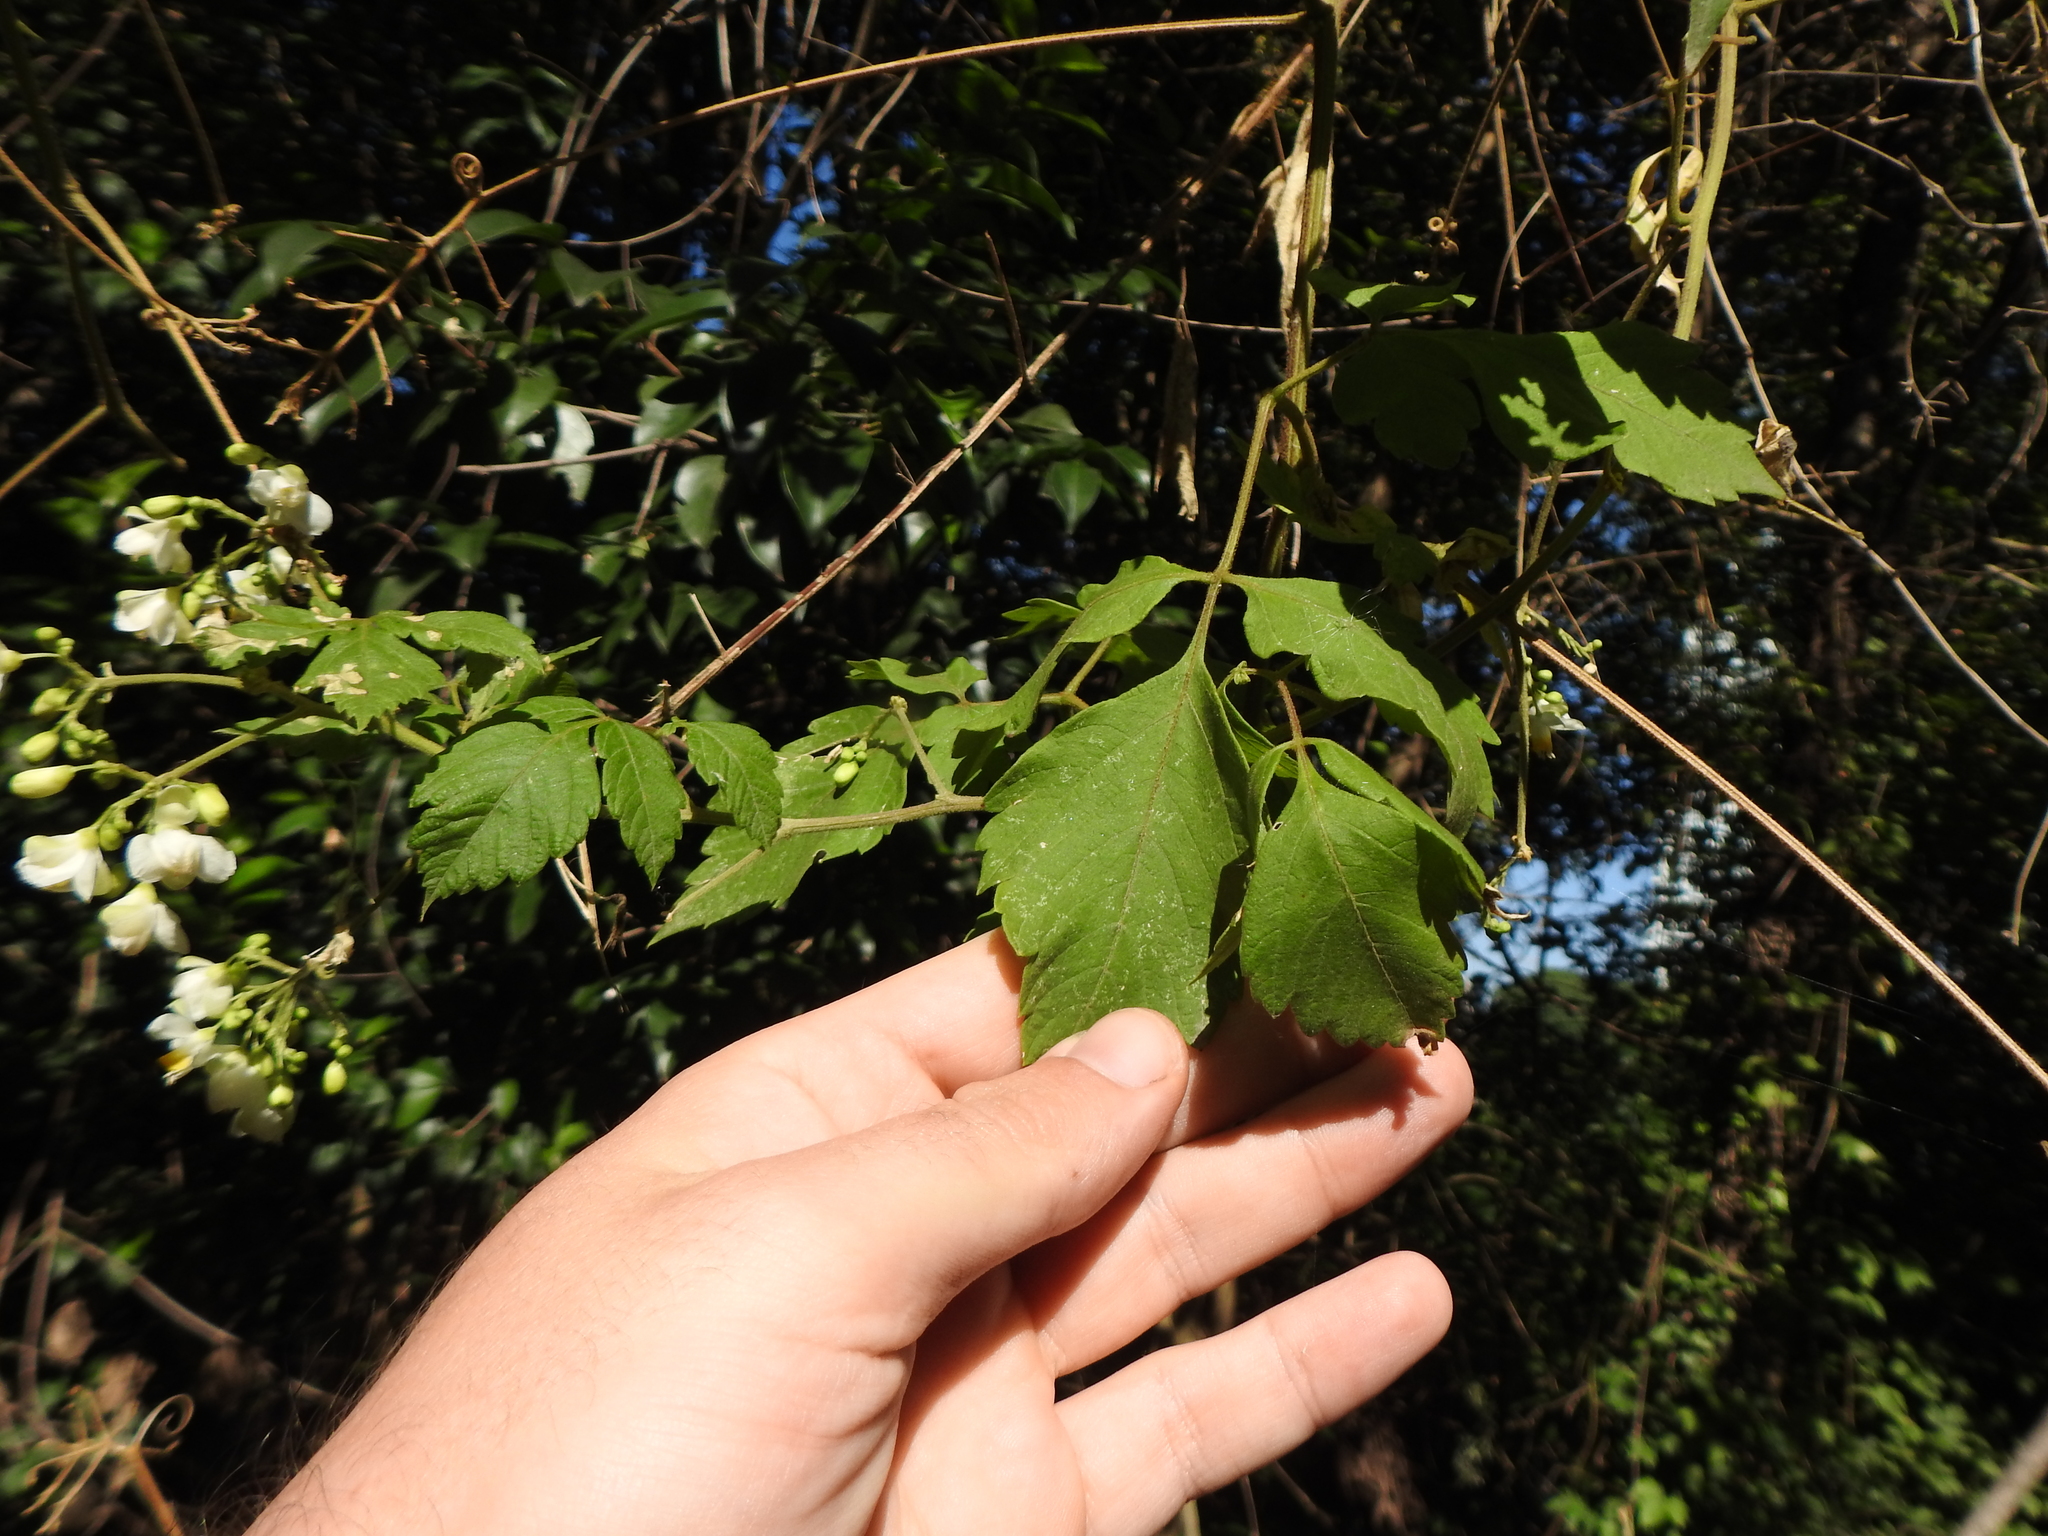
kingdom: Plantae
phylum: Tracheophyta
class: Magnoliopsida
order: Sapindales
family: Sapindaceae
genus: Cardiospermum
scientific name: Cardiospermum grandiflorum
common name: Balloon vine
